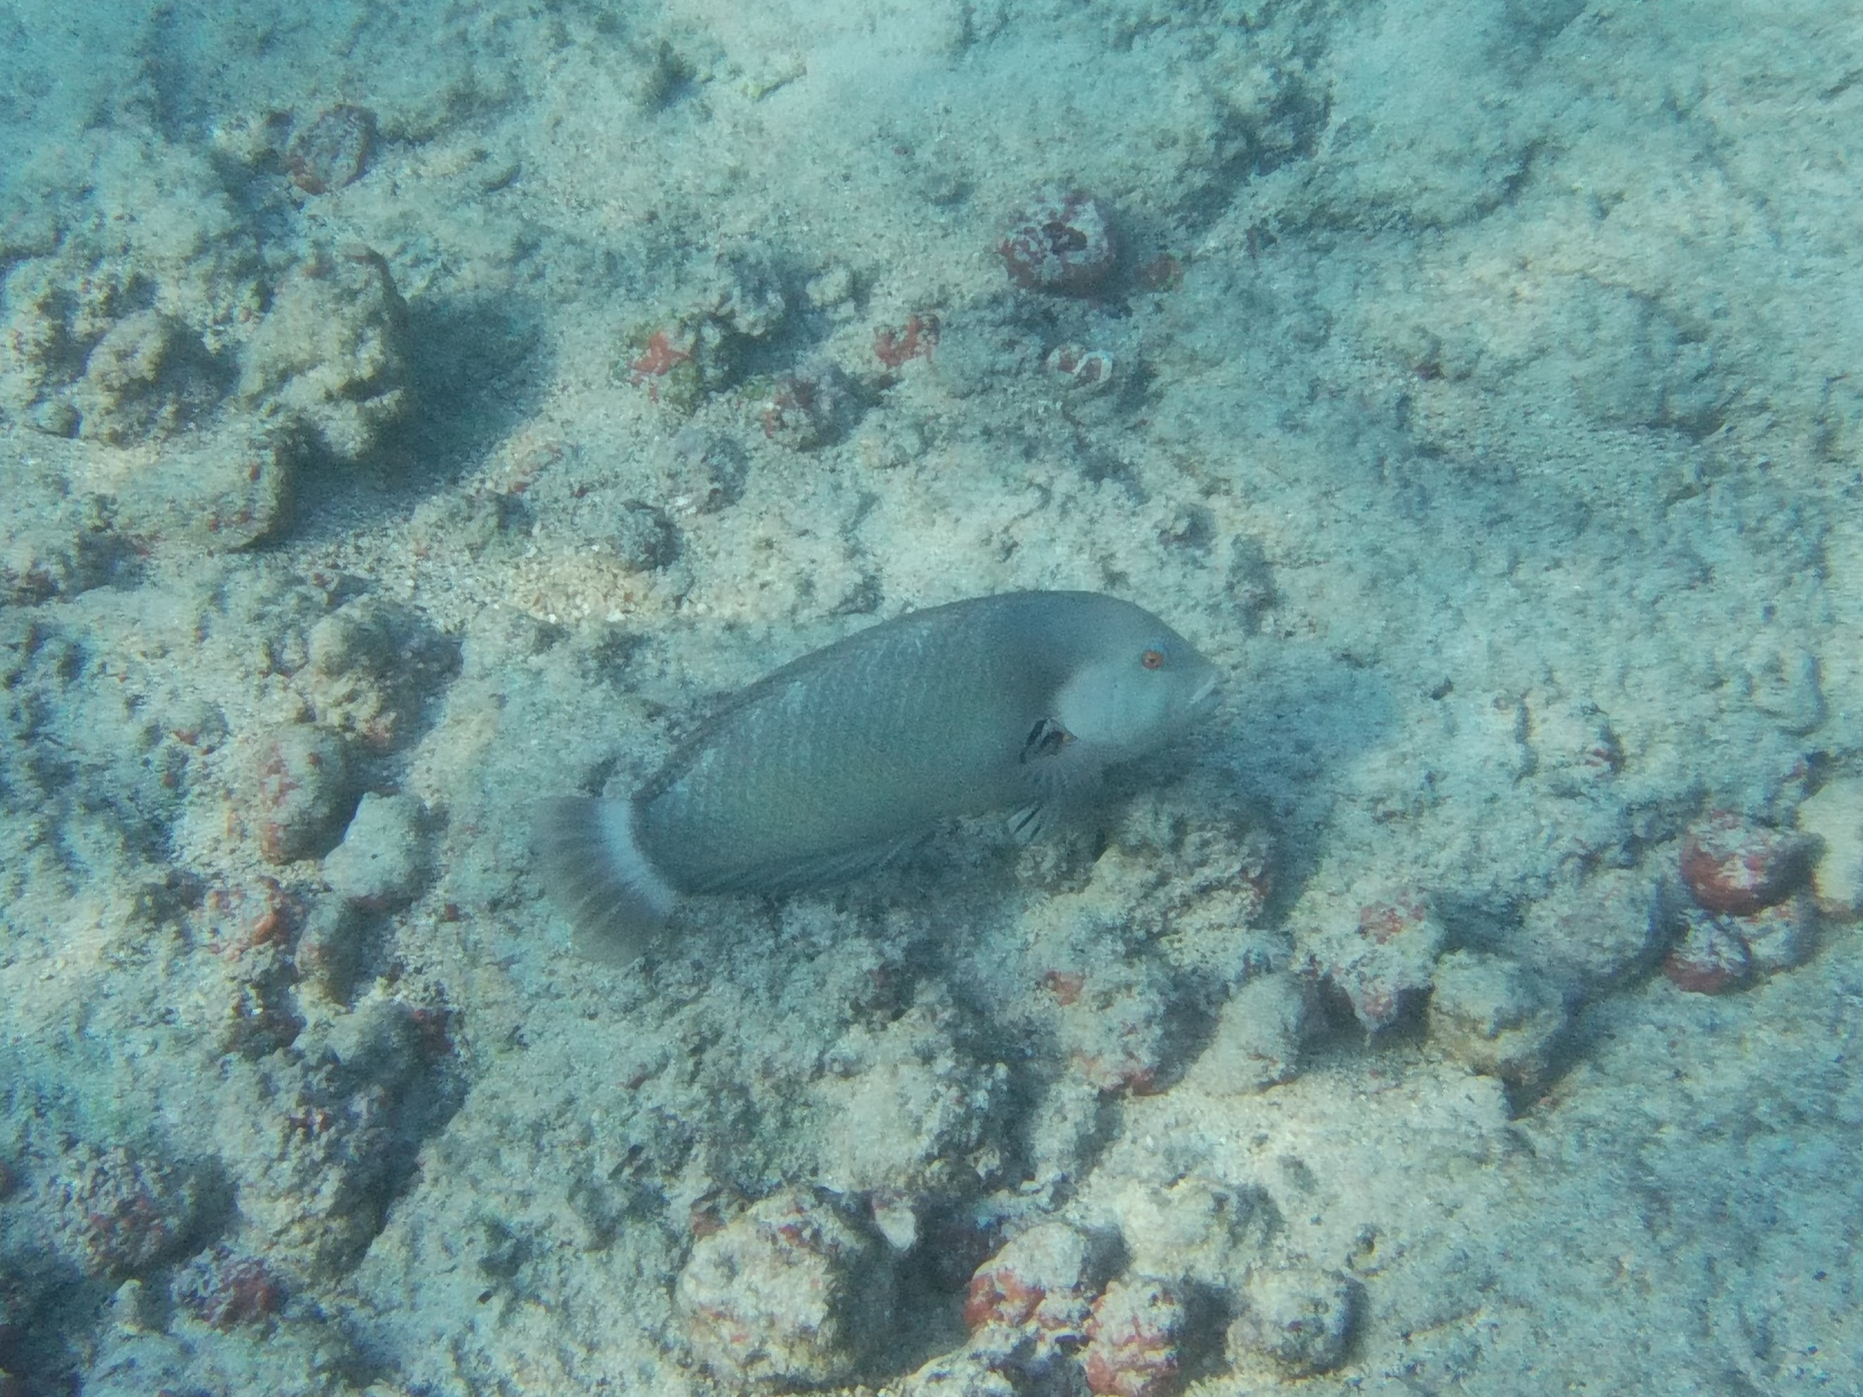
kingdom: Animalia
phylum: Chordata
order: Perciformes
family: Labridae
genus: Novaculichthys
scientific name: Novaculichthys taeniourus
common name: Rockmover wrasse
